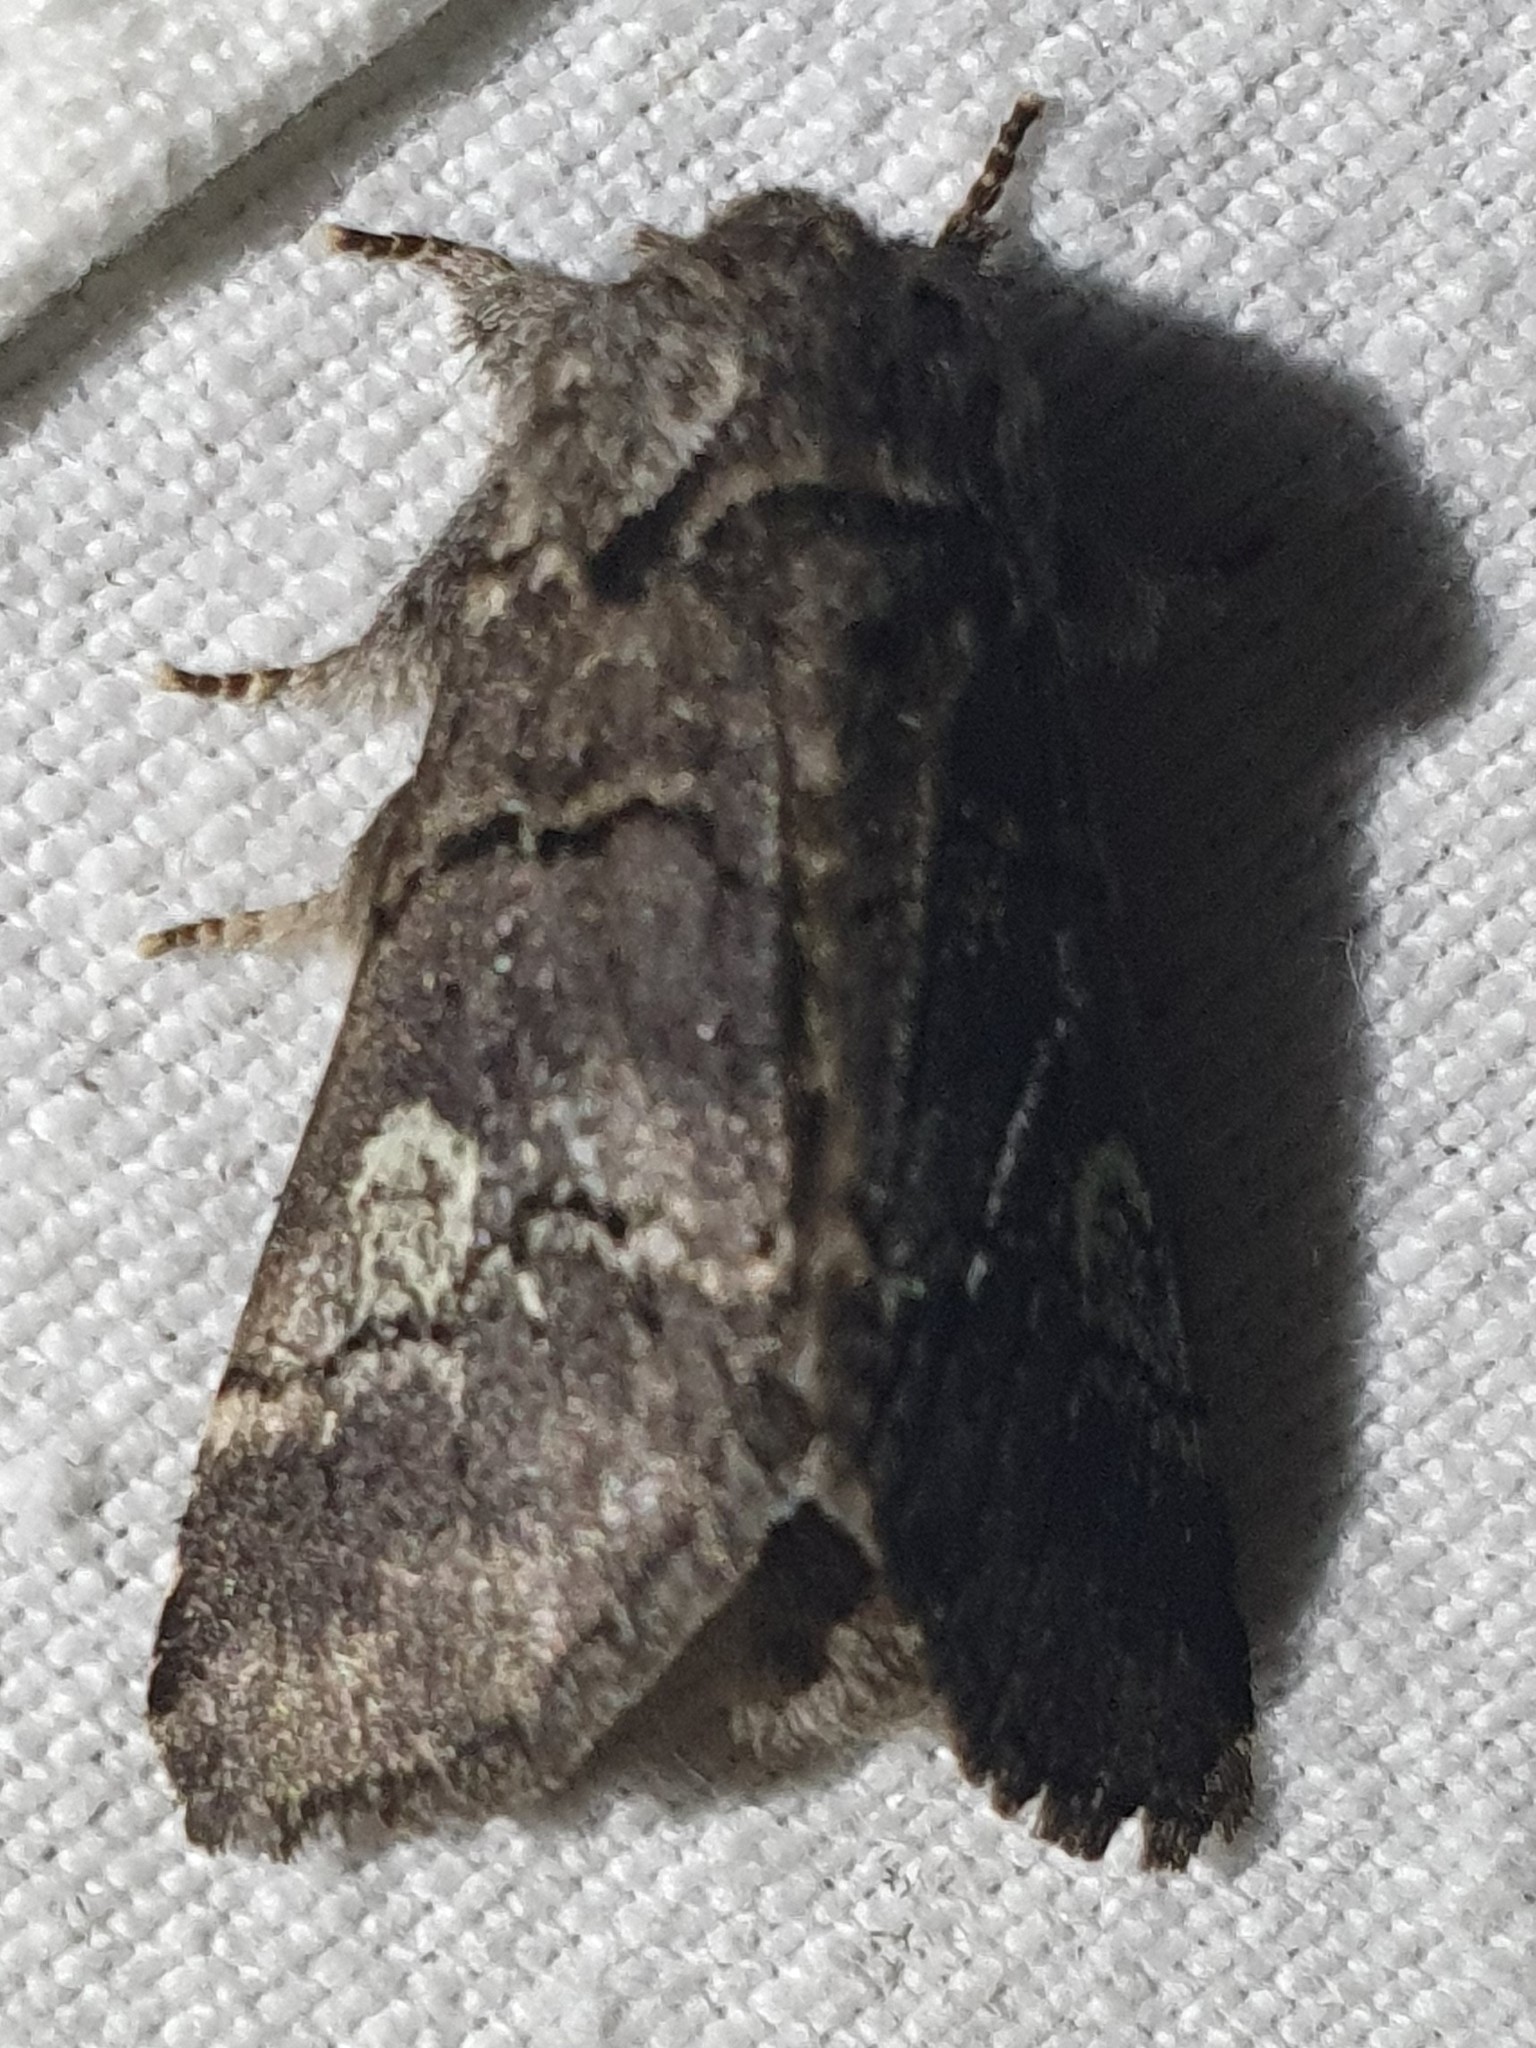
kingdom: Animalia
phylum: Arthropoda
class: Insecta
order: Lepidoptera
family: Notodontidae
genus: Drymonia
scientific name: Drymonia querna
